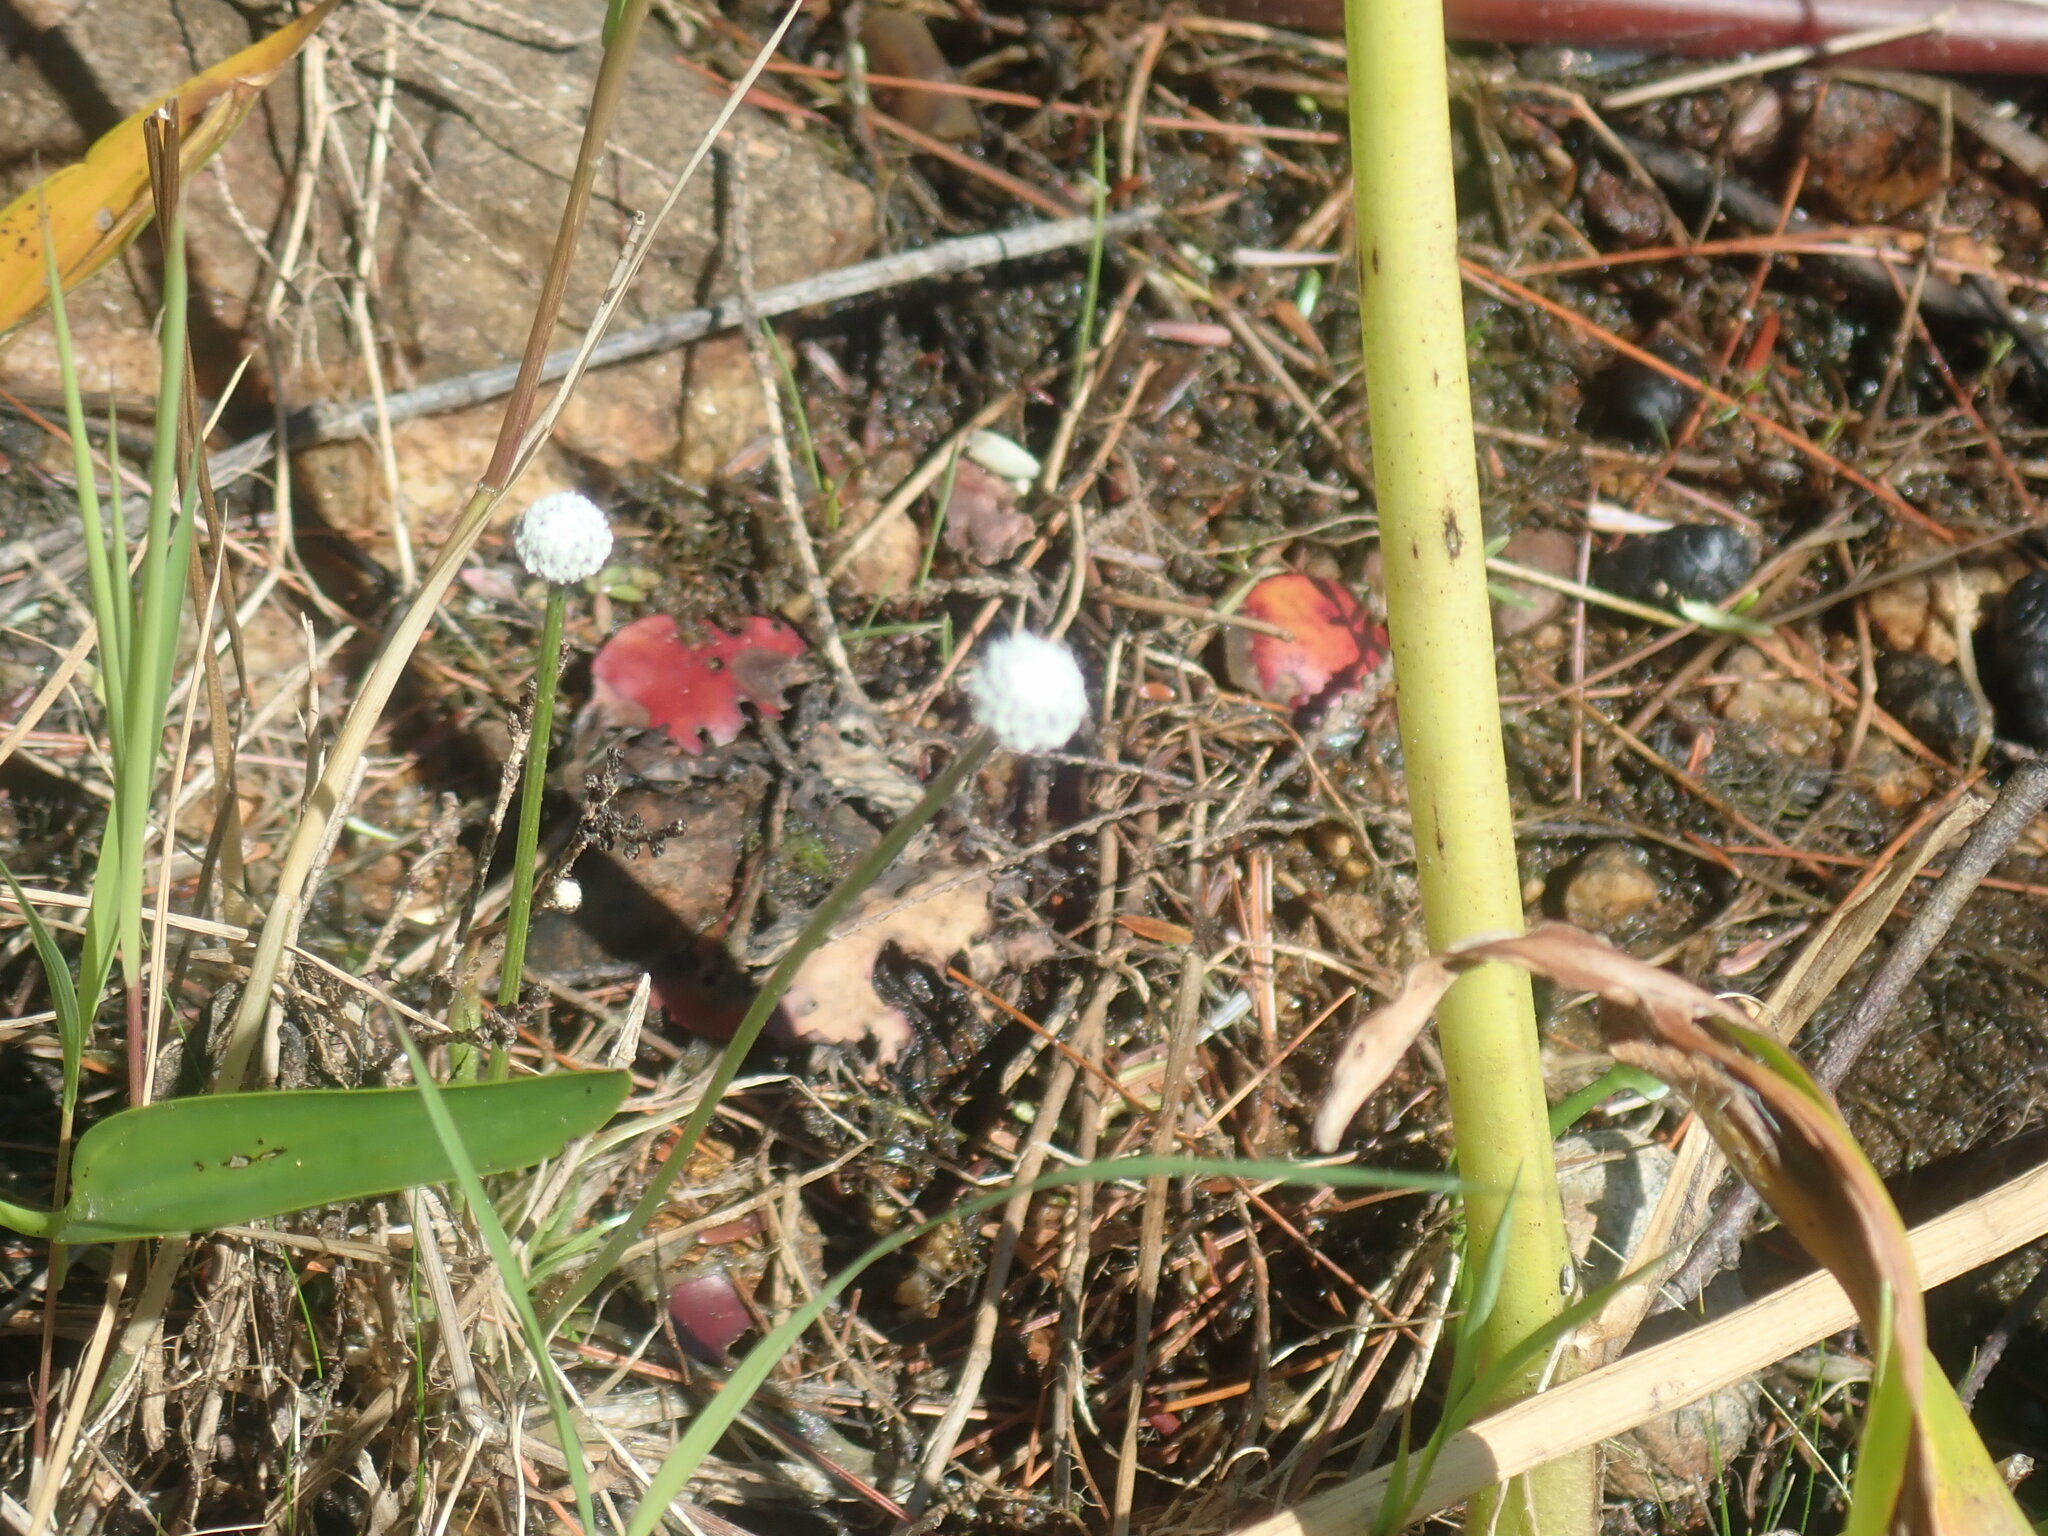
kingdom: Plantae
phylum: Tracheophyta
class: Liliopsida
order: Poales
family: Eriocaulaceae
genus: Eriocaulon
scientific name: Eriocaulon aquaticum
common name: Pipewort
